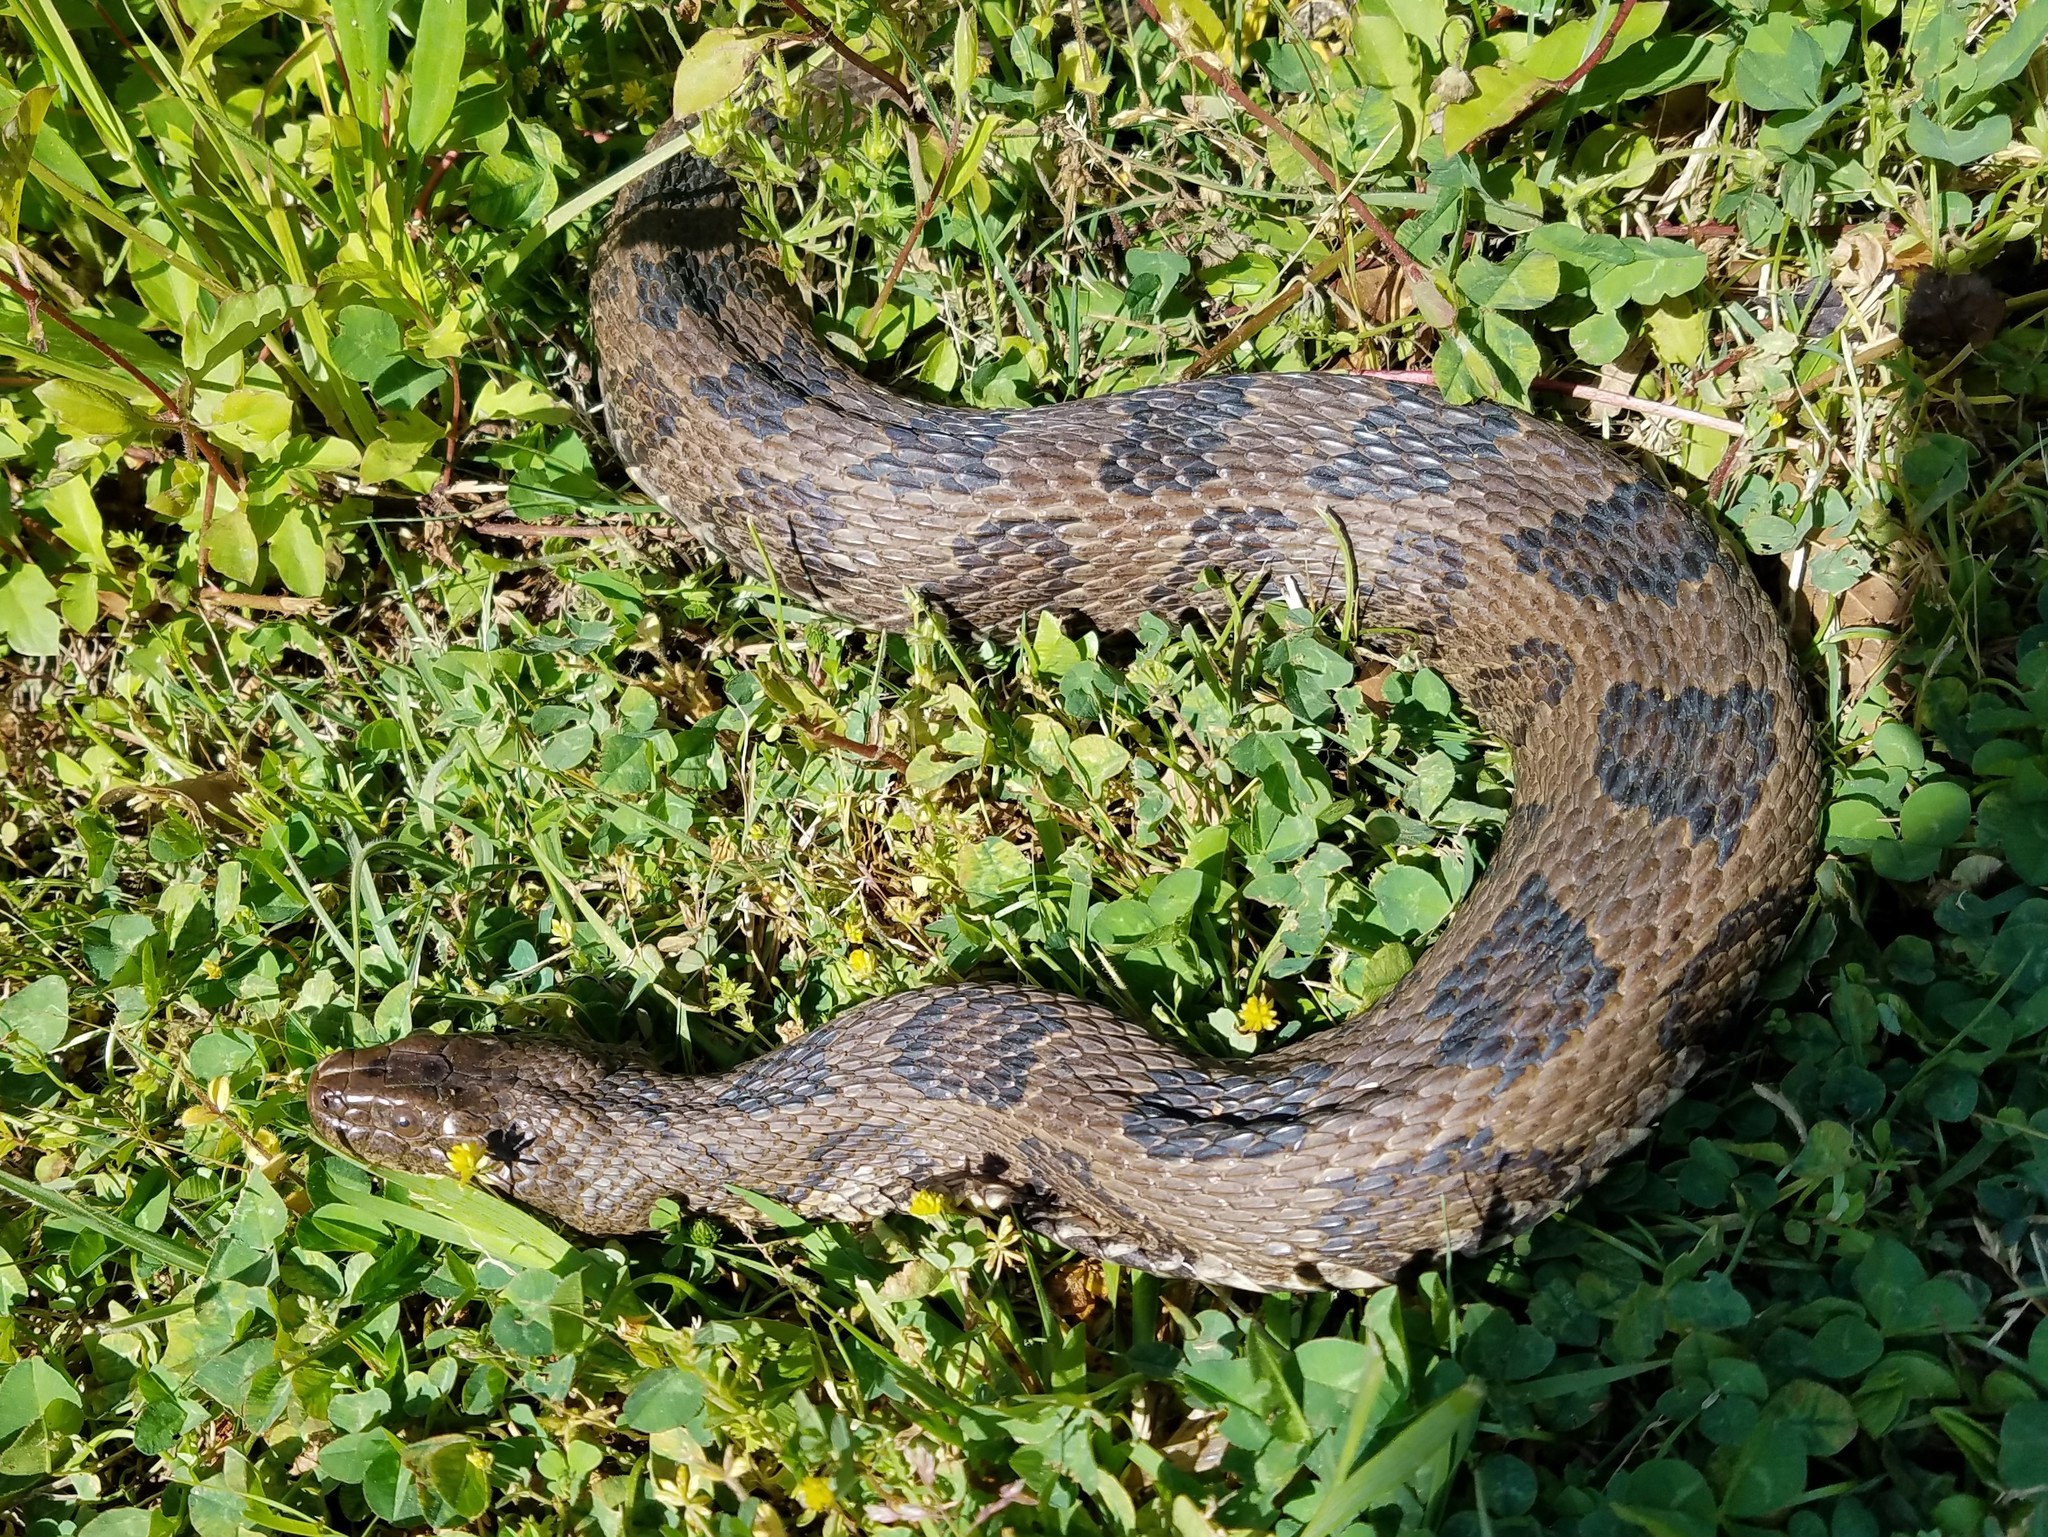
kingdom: Animalia
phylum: Chordata
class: Squamata
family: Colubridae
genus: Nerodia
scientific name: Nerodia taxispilota
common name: Brown water snake
